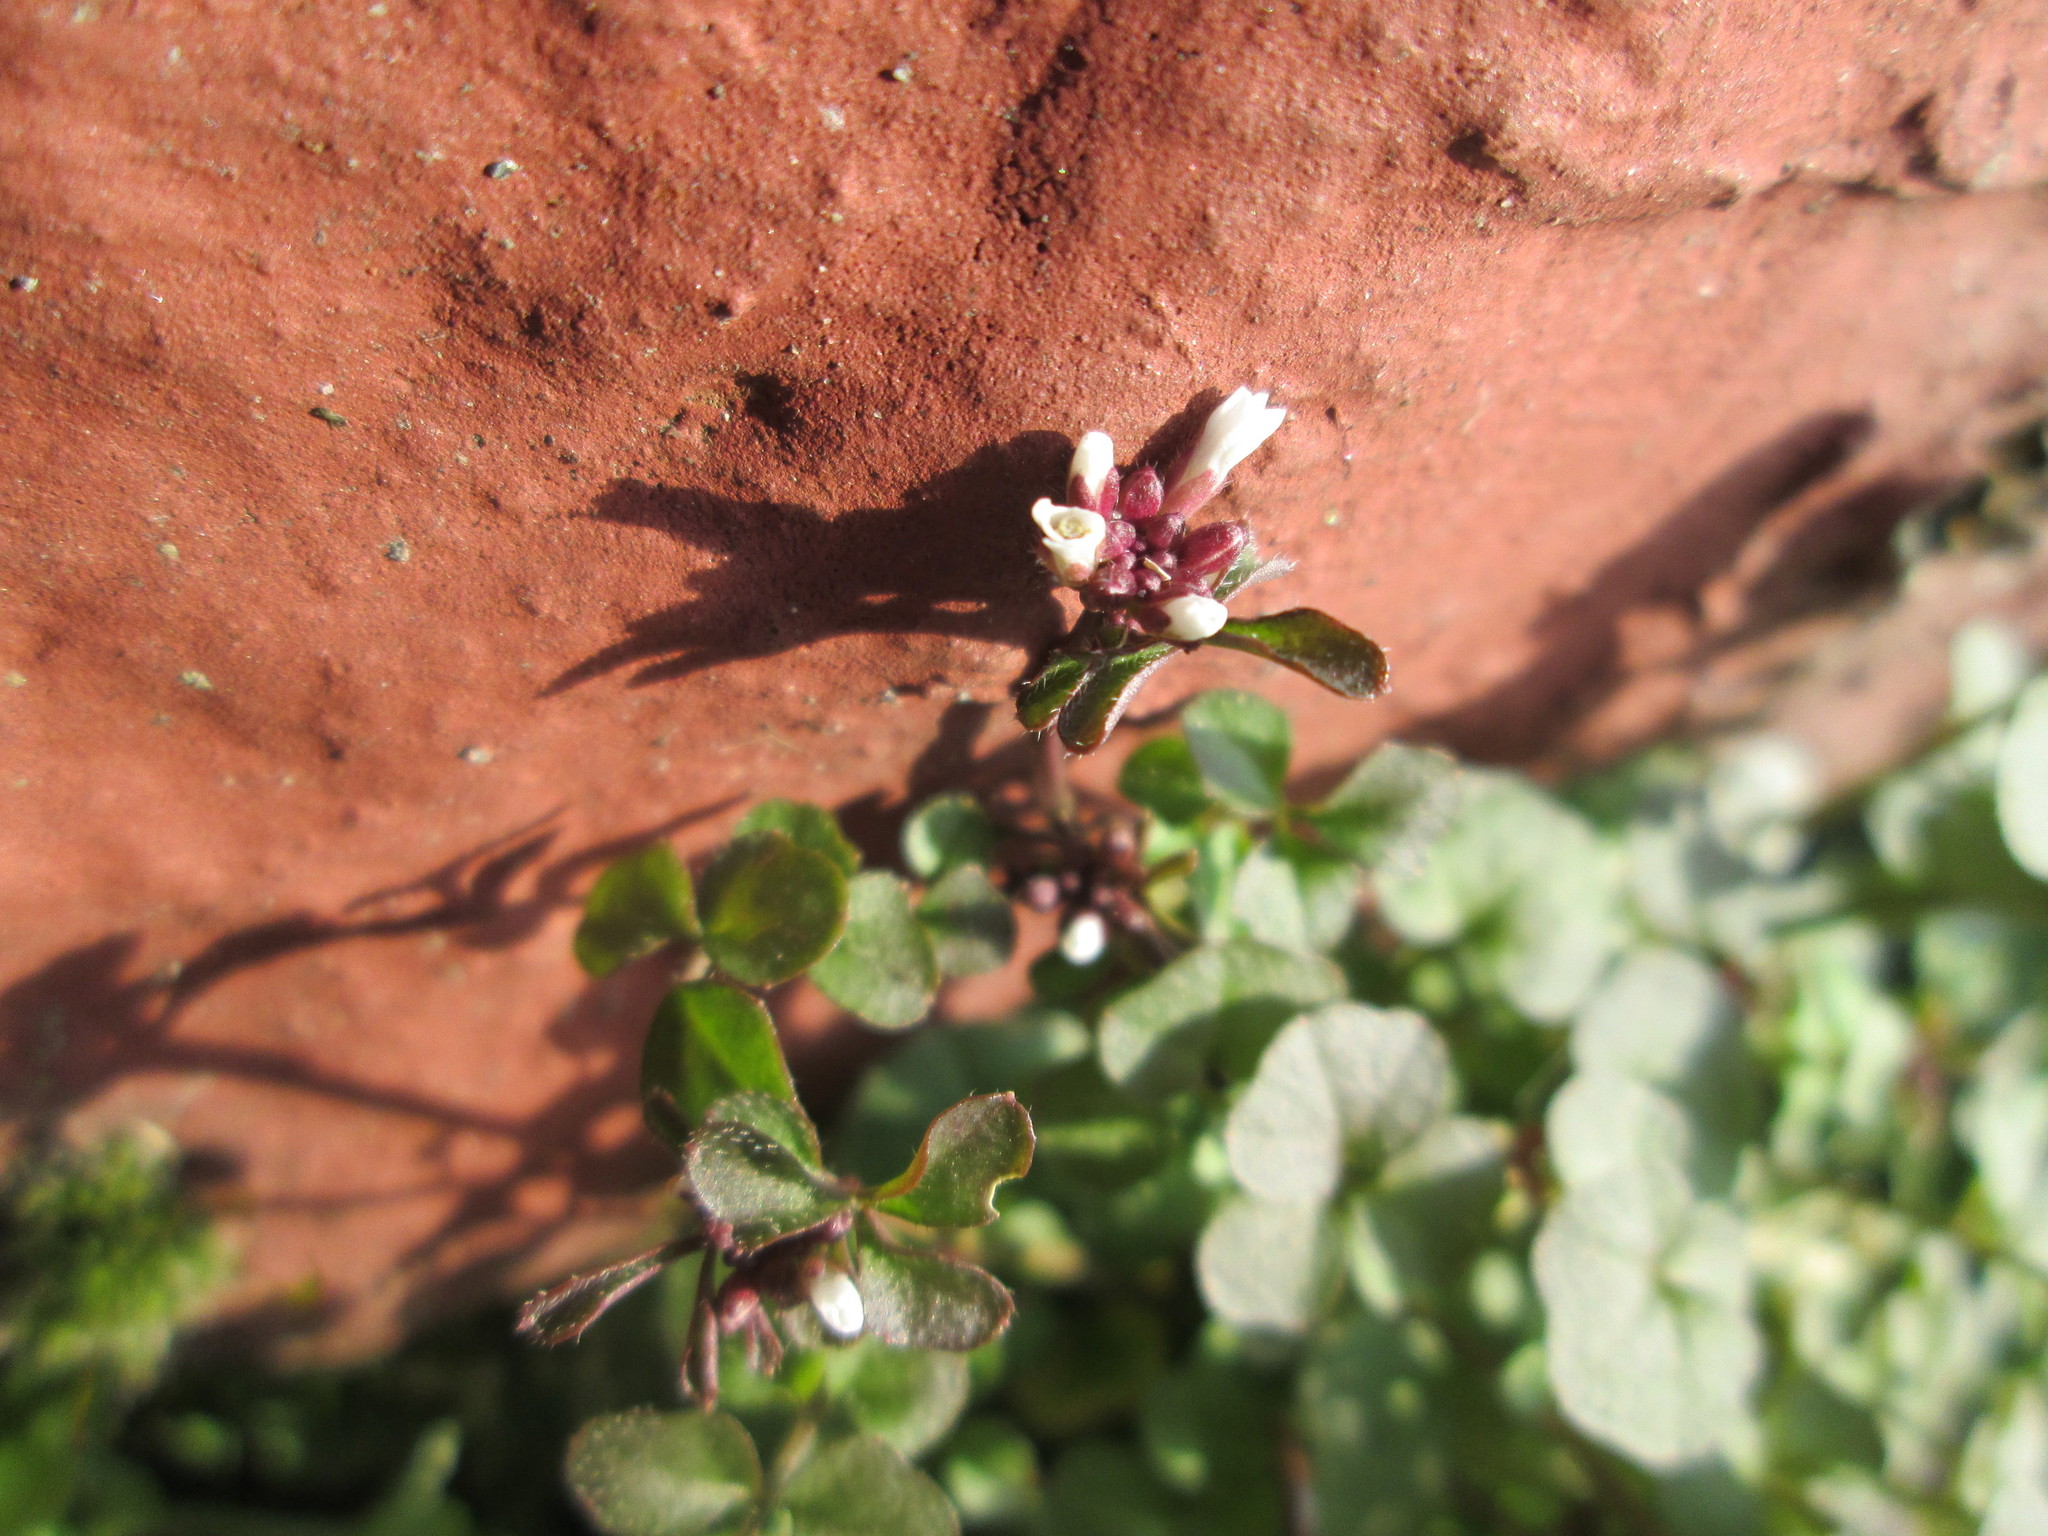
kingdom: Plantae
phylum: Tracheophyta
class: Magnoliopsida
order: Brassicales
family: Brassicaceae
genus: Cardamine
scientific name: Cardamine hirsuta
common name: Hairy bittercress
